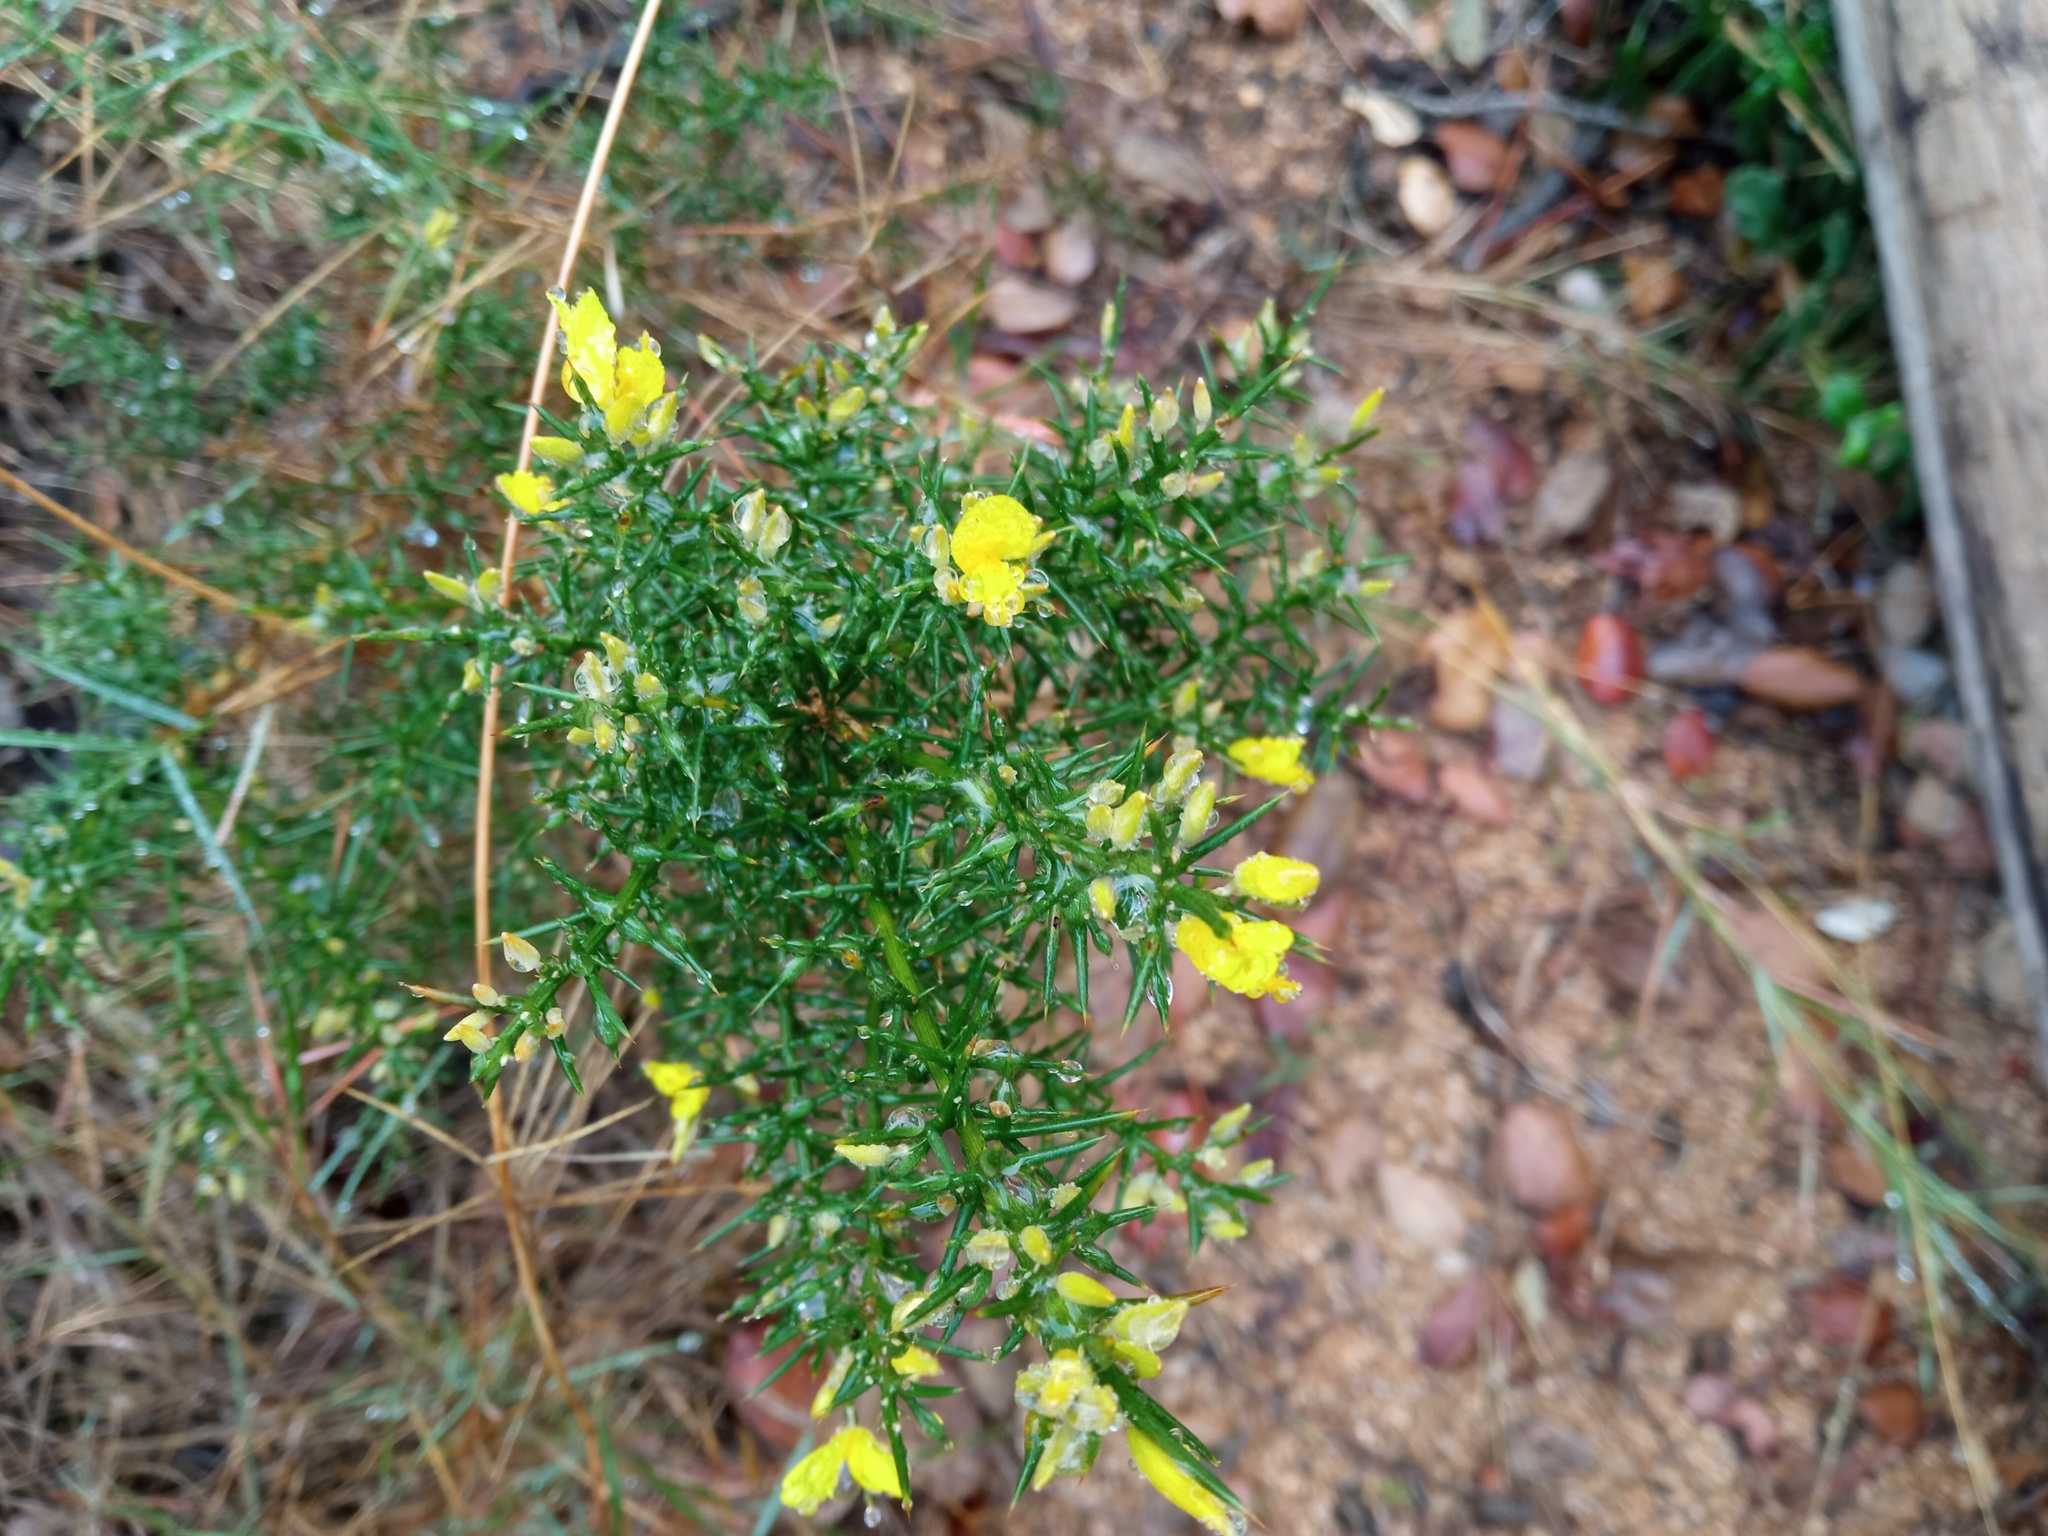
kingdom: Plantae
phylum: Tracheophyta
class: Magnoliopsida
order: Fabales
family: Fabaceae
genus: Ulex
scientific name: Ulex parviflorus
